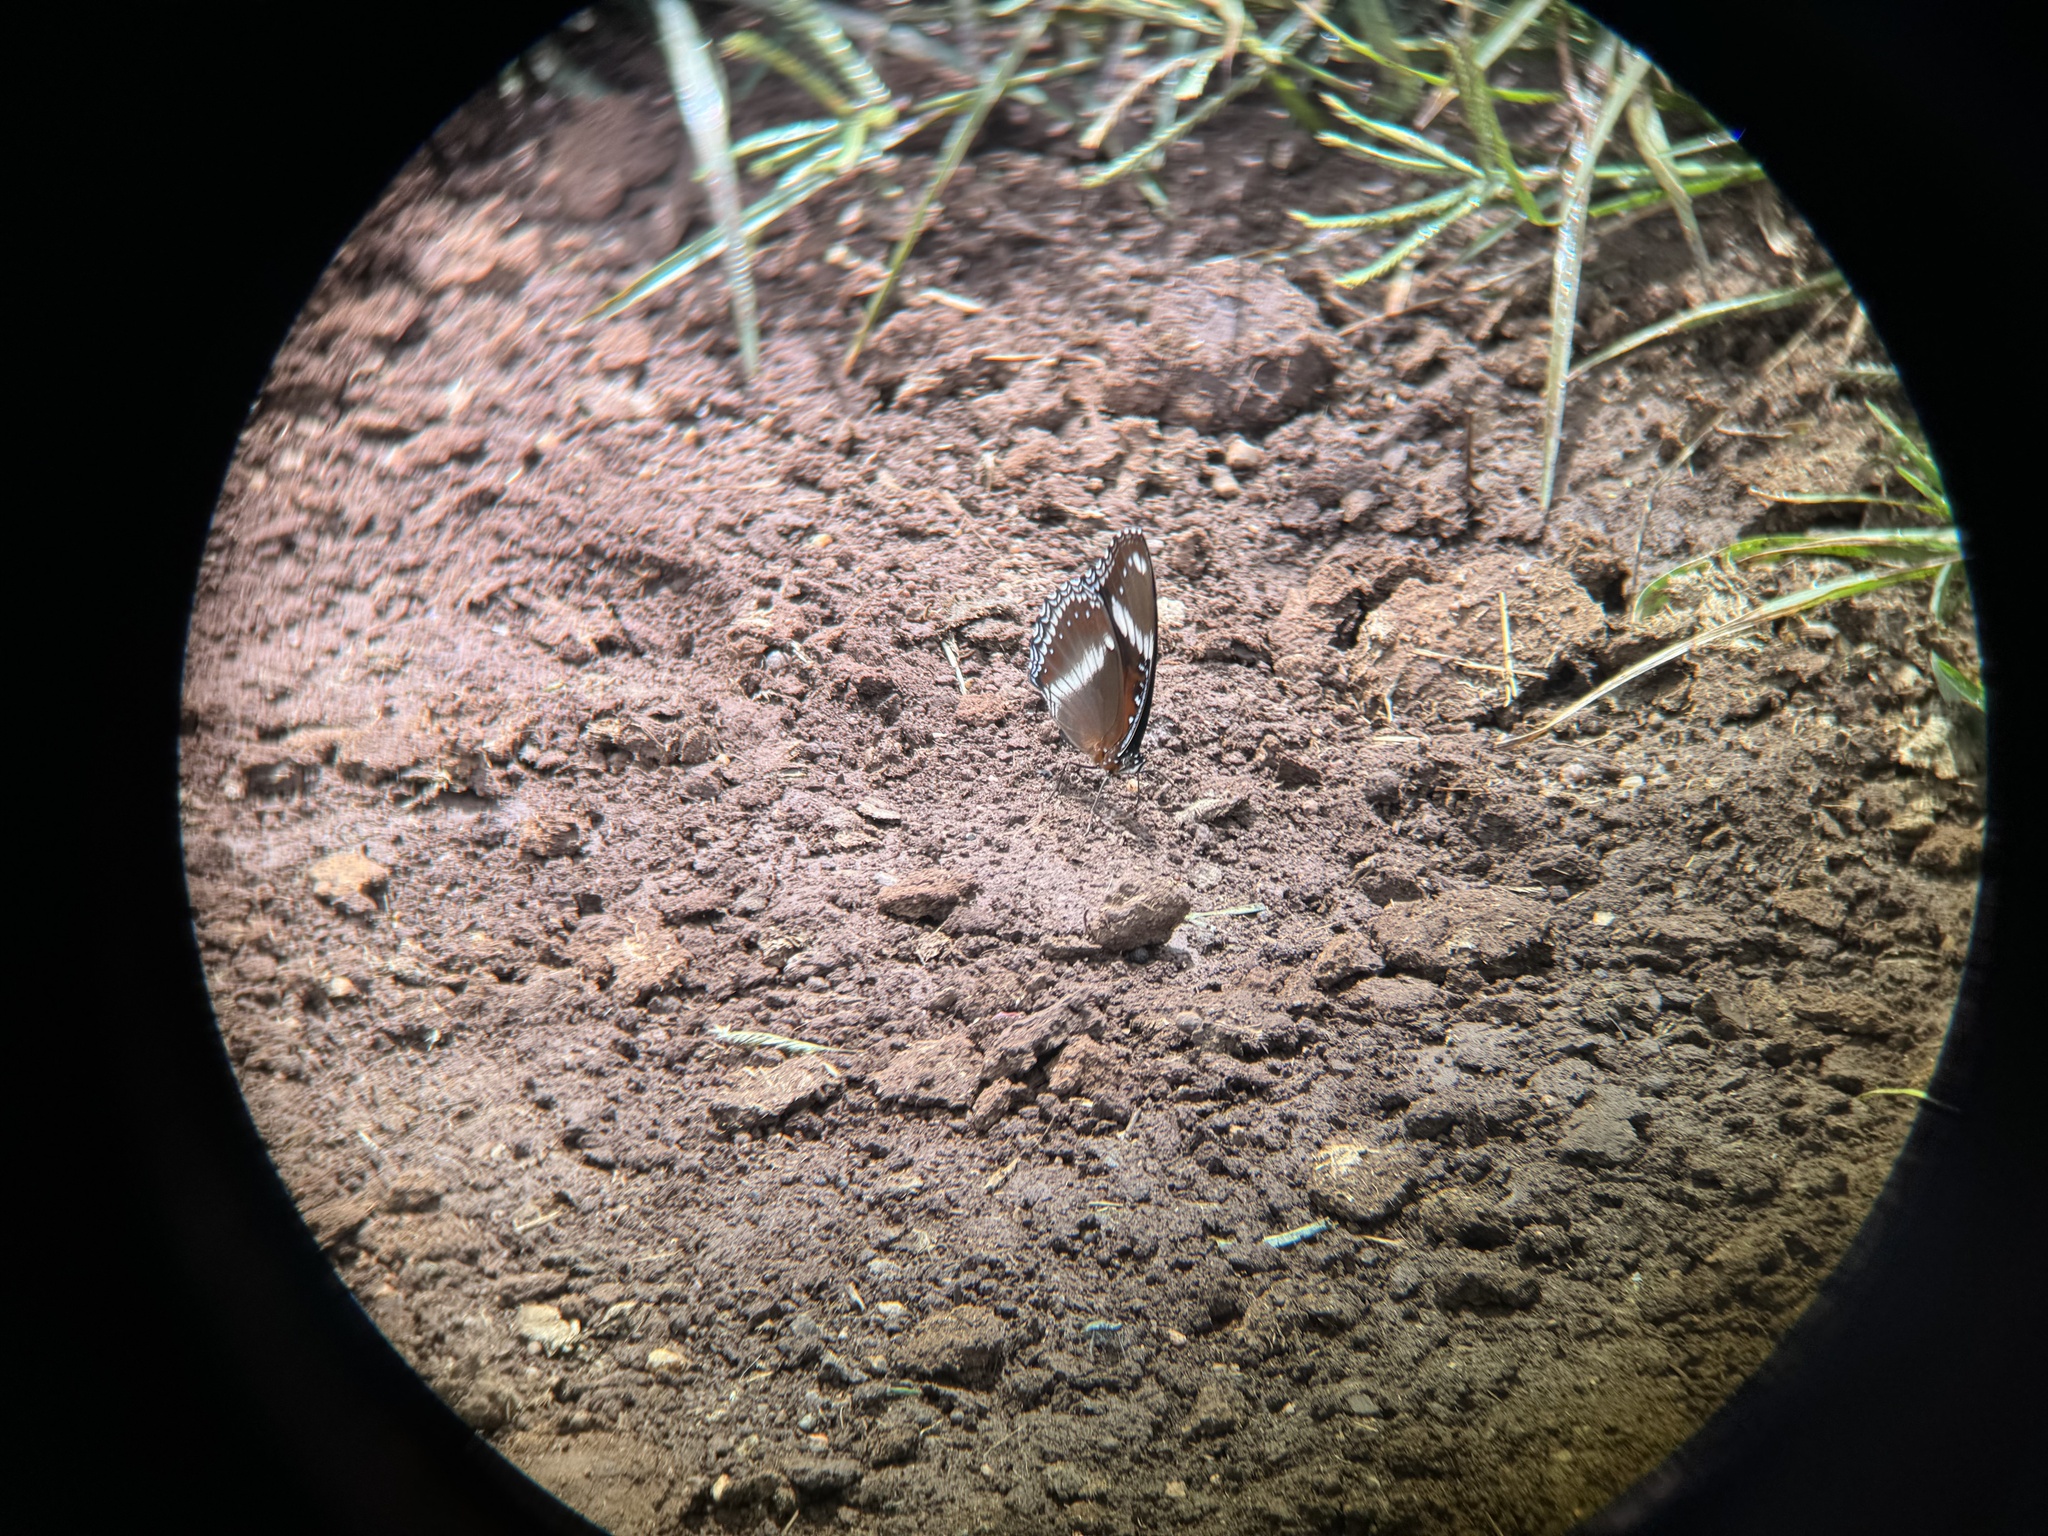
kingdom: Animalia
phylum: Arthropoda
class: Insecta
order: Lepidoptera
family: Nymphalidae
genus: Hypolimnas
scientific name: Hypolimnas bolina
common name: Great eggfly
